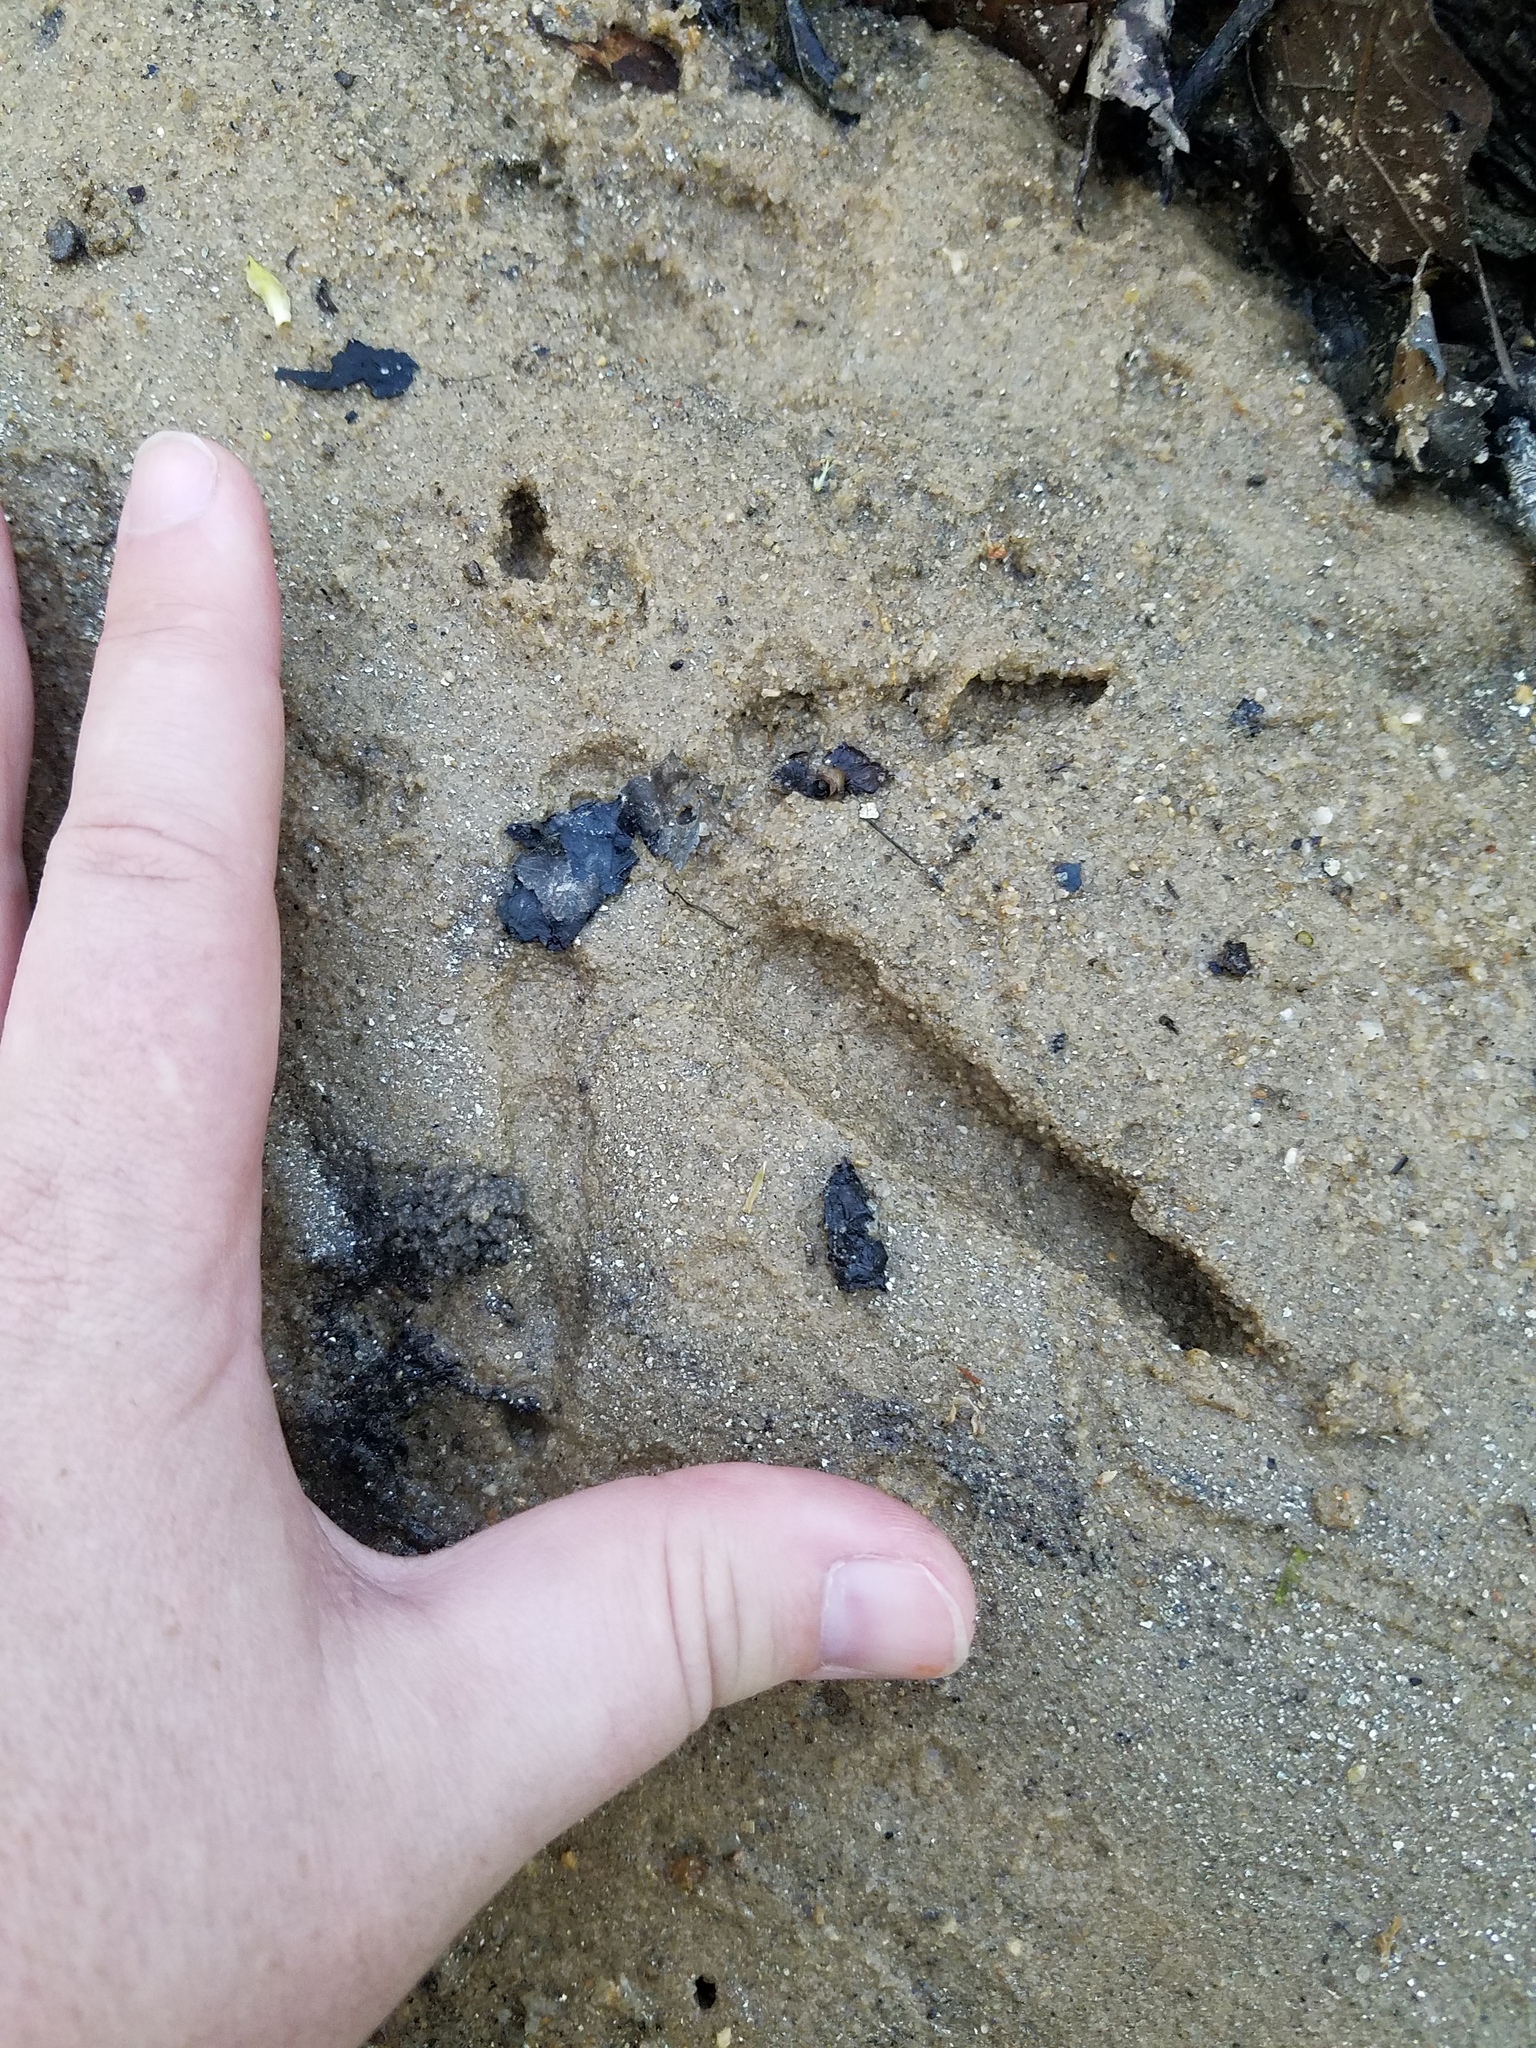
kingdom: Animalia
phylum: Chordata
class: Aves
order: Galliformes
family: Phasianidae
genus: Meleagris
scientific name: Meleagris gallopavo
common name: Wild turkey
